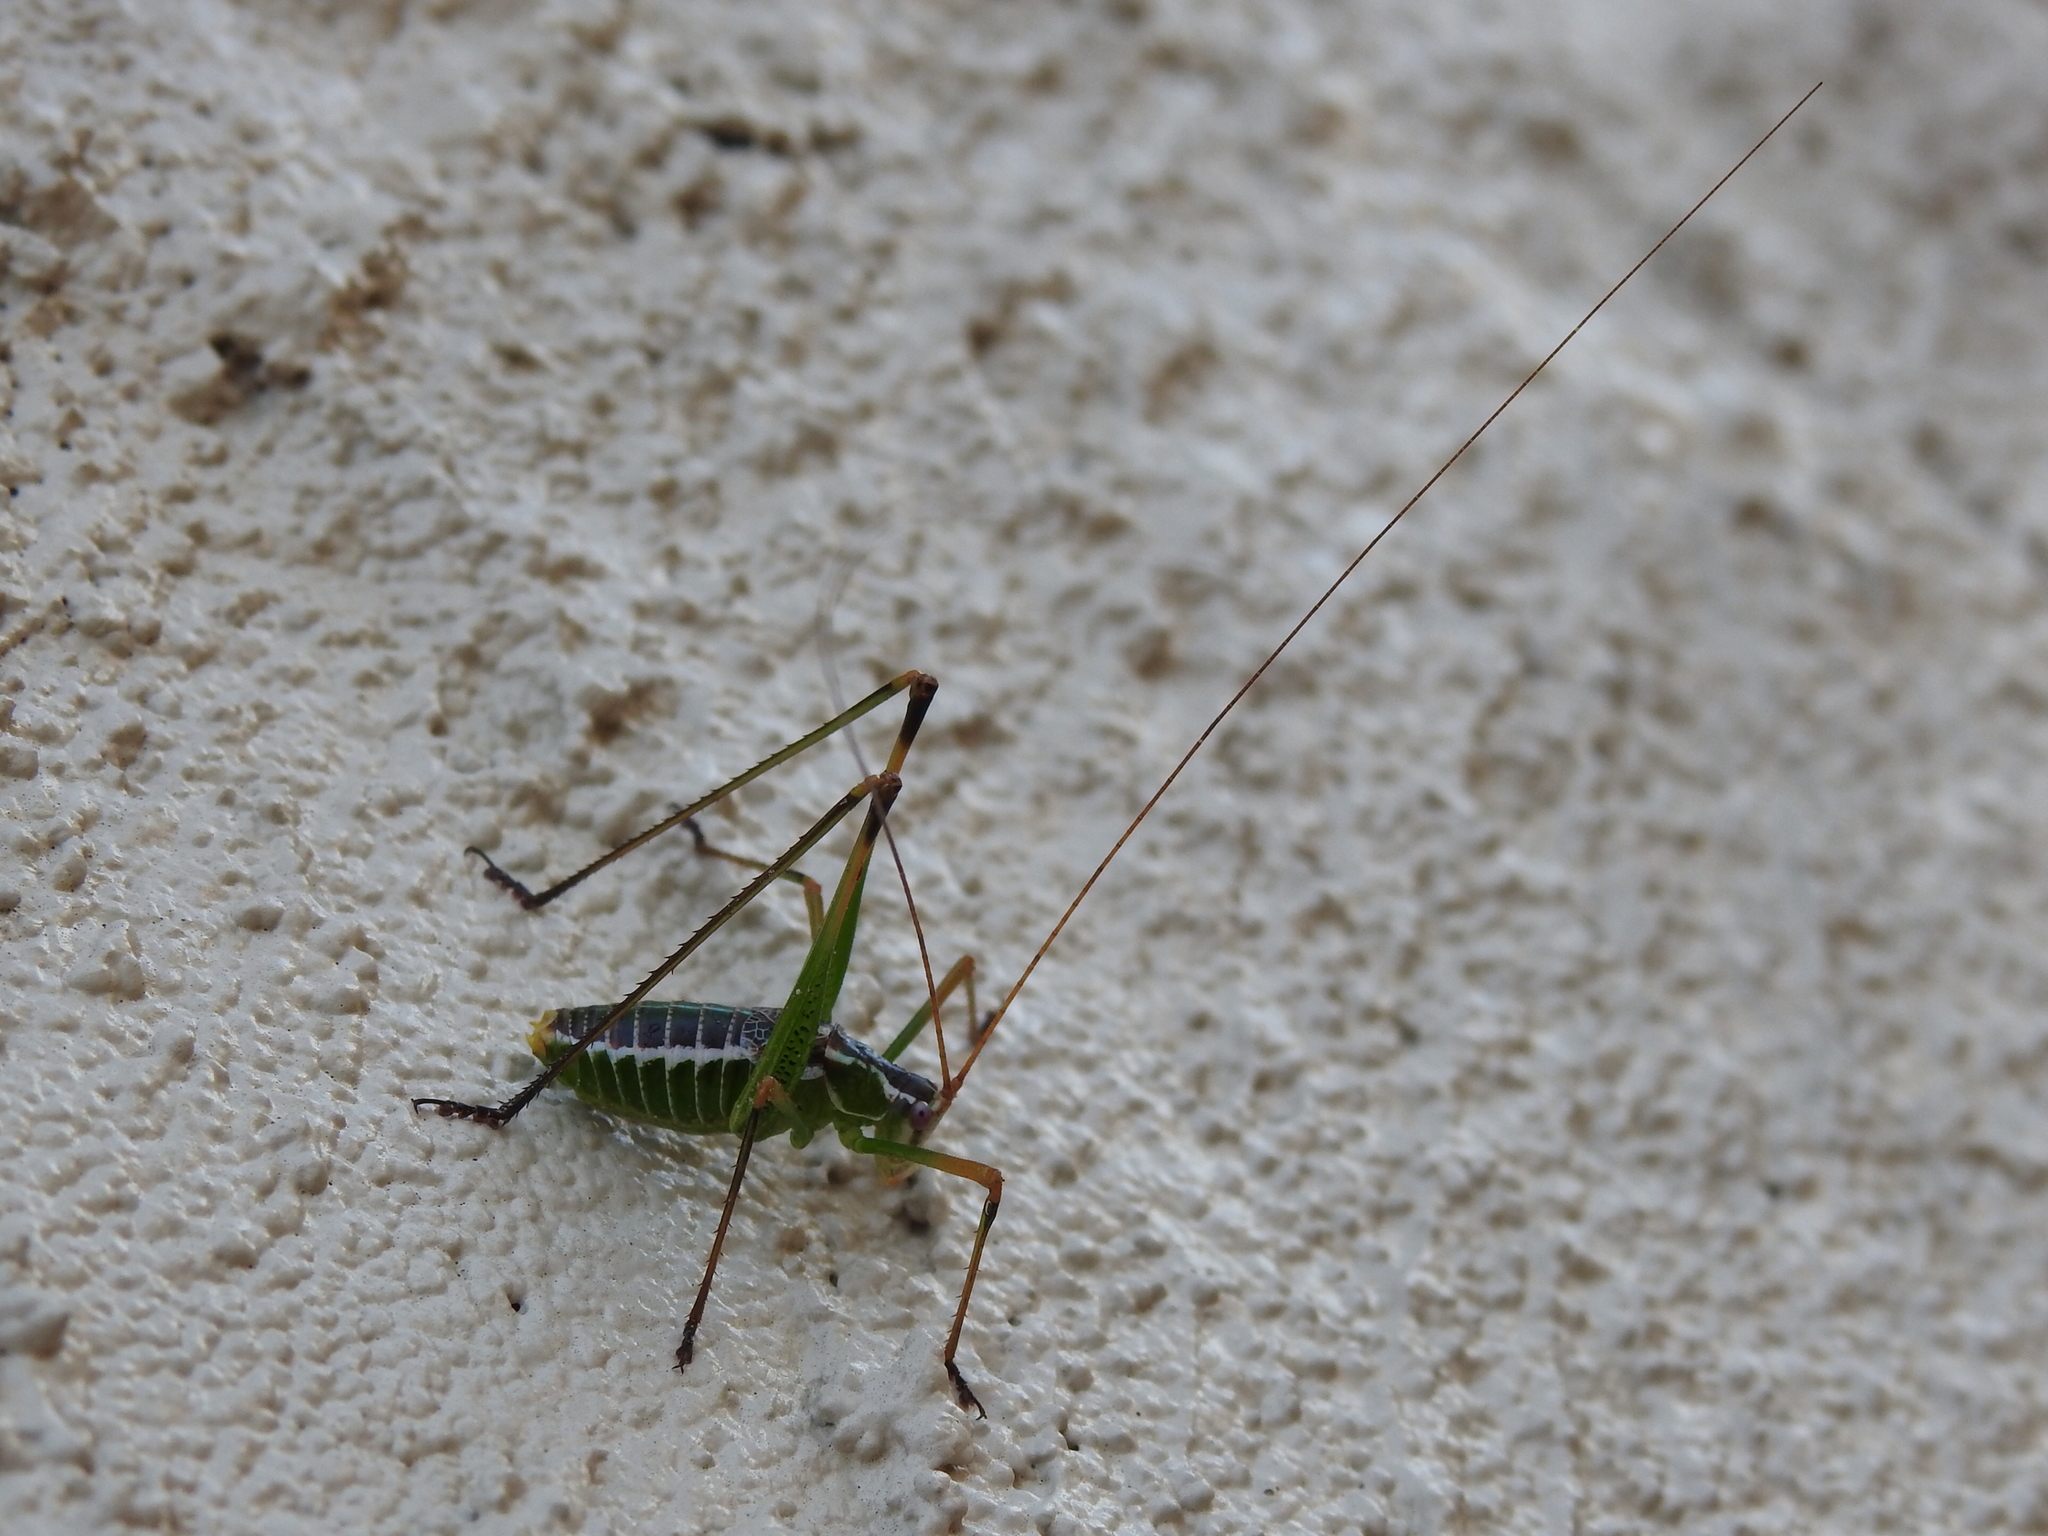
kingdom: Animalia
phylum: Arthropoda
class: Insecta
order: Orthoptera
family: Tettigoniidae
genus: Obolopteryx
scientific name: Obolopteryx castanea
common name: Chestnut short-winged katydid
